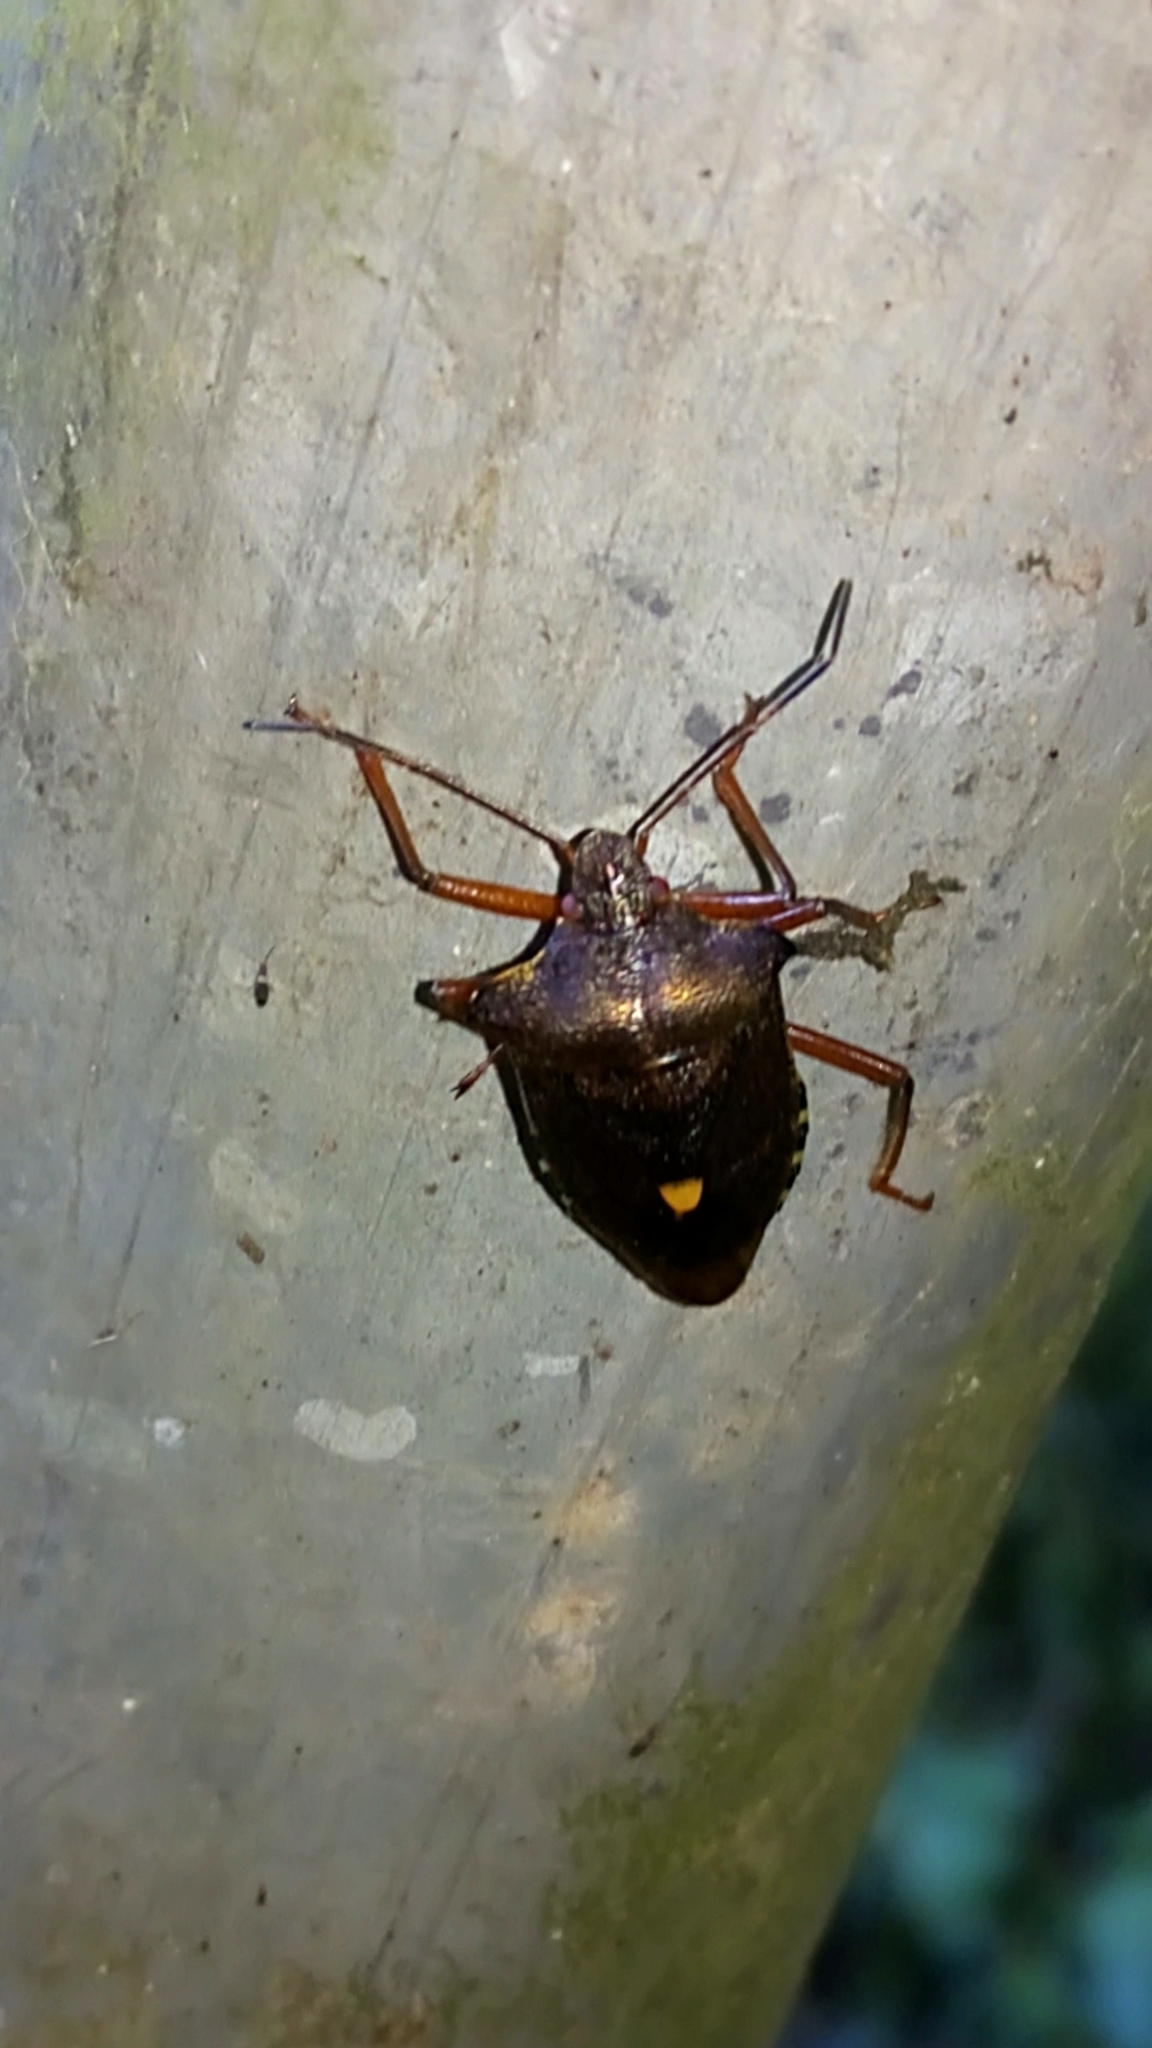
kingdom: Animalia
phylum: Arthropoda
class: Insecta
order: Hemiptera
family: Pentatomidae
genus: Pentatoma
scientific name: Pentatoma rufipes
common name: Forest bug
